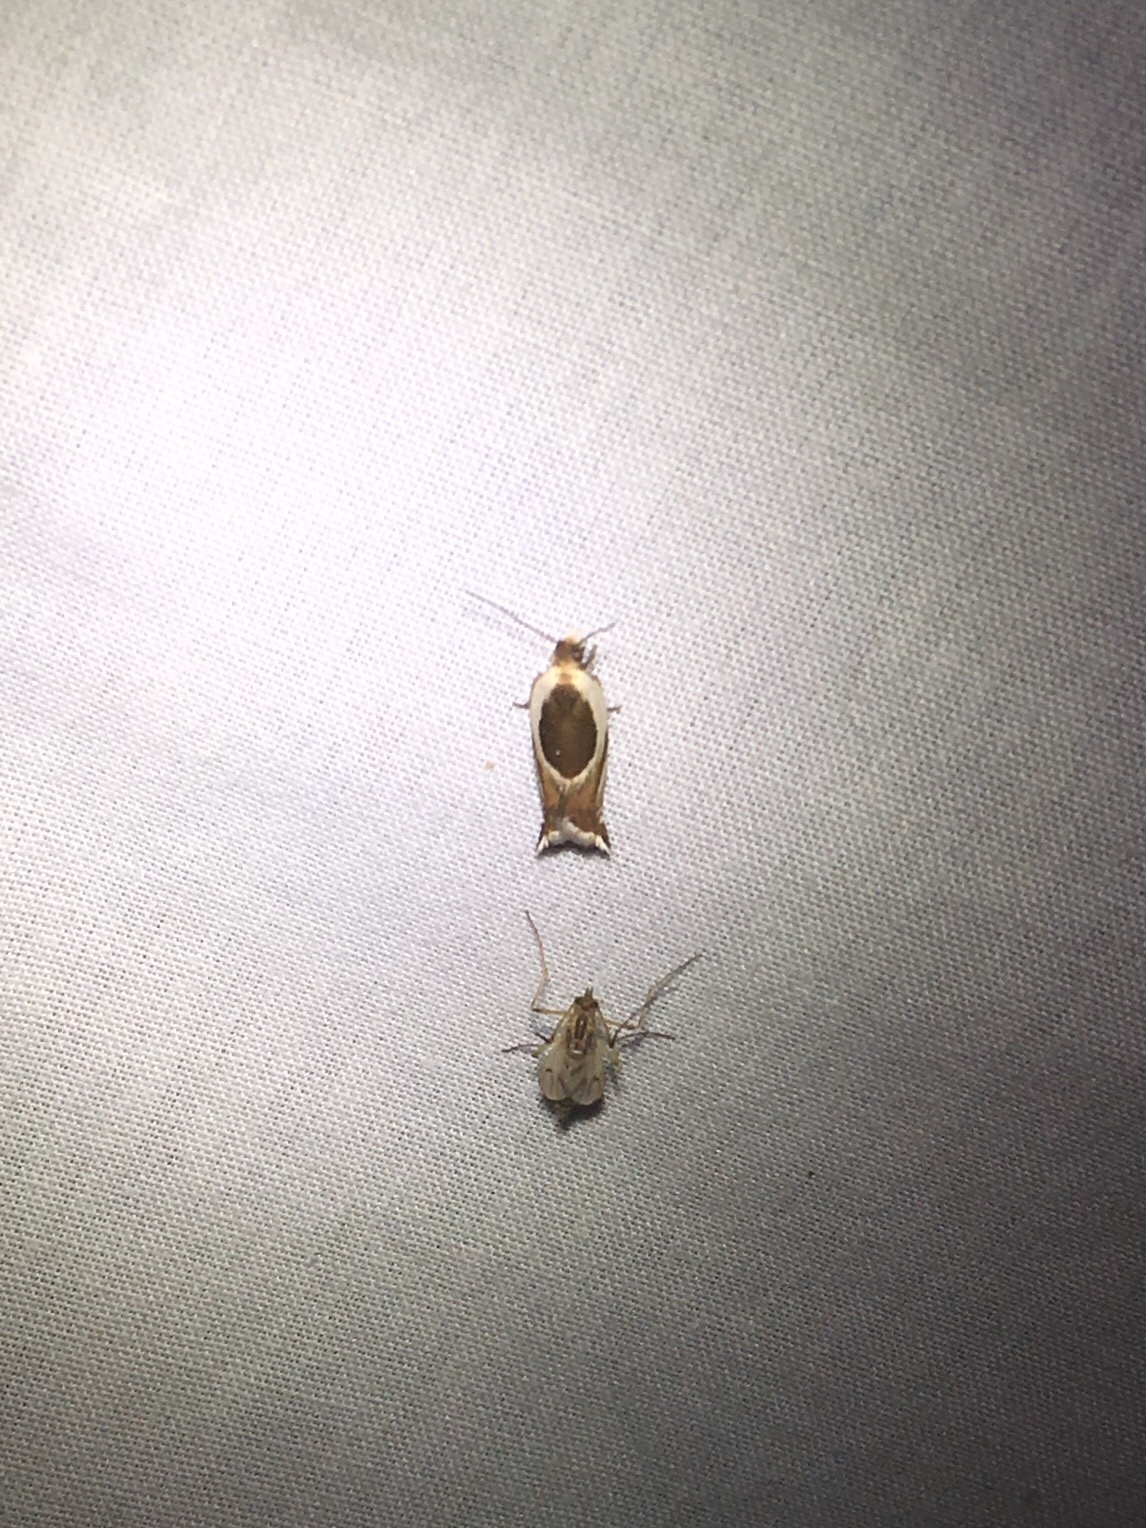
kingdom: Animalia
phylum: Arthropoda
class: Insecta
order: Lepidoptera
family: Tortricidae
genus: Ancylis
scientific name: Ancylis semiovana
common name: Half-oval leaffolder moth
